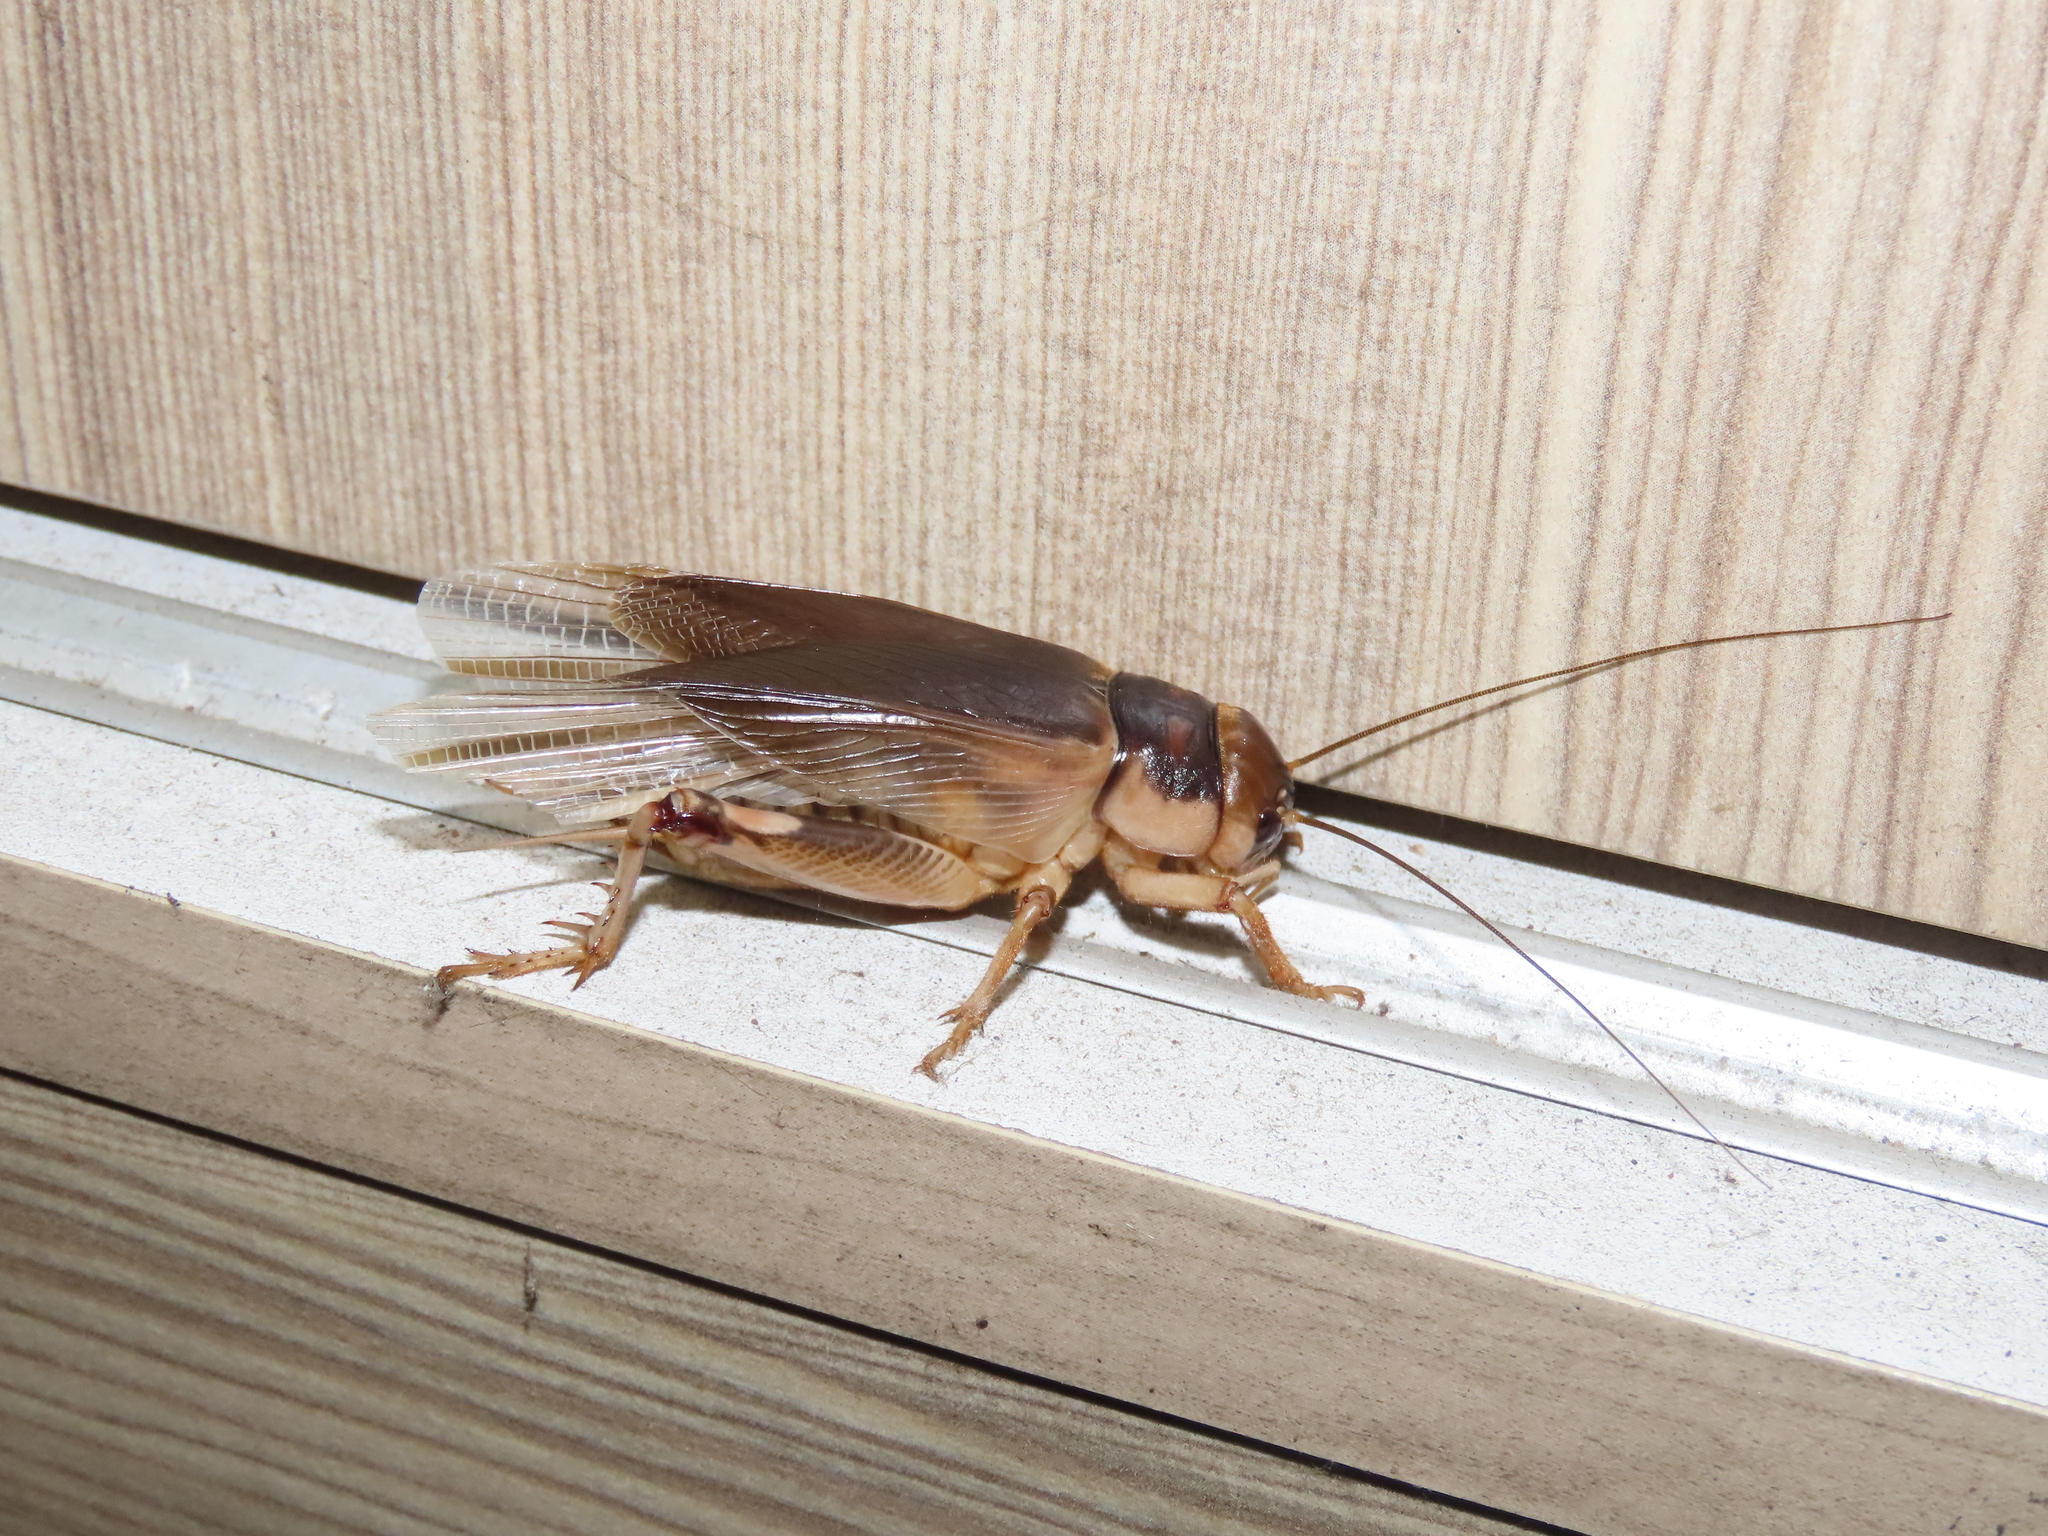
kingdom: Animalia
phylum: Arthropoda
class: Insecta
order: Orthoptera
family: Gryllidae
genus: Tarbinskiellus
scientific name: Tarbinskiellus portentosus
